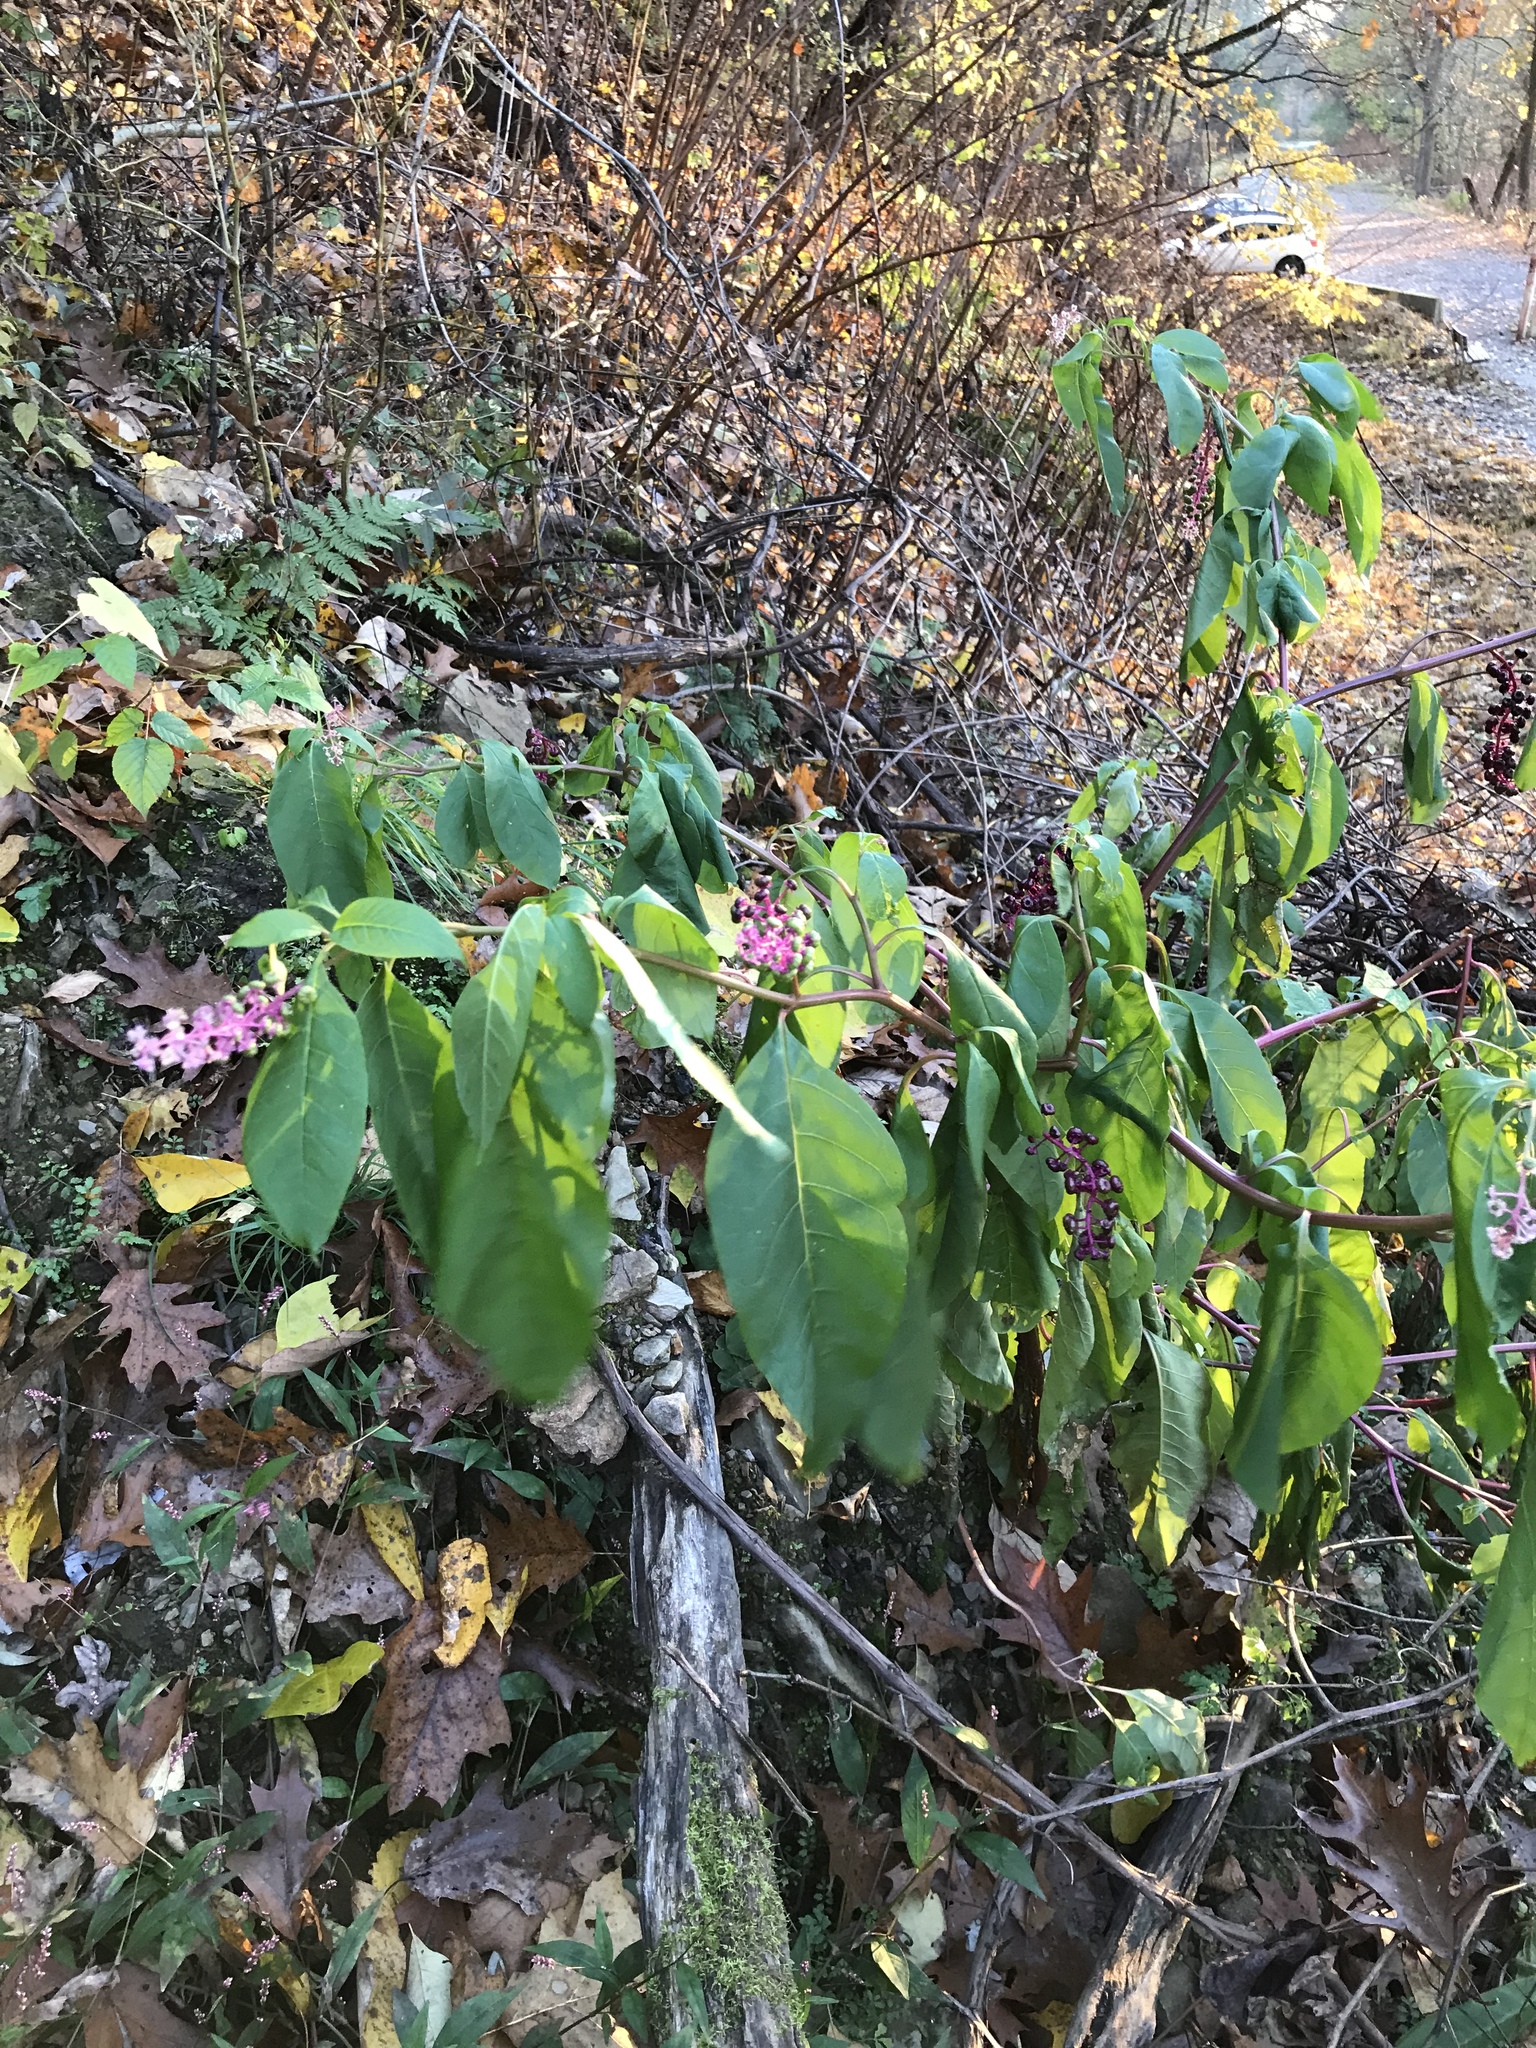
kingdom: Plantae
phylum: Tracheophyta
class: Magnoliopsida
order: Caryophyllales
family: Phytolaccaceae
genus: Phytolacca
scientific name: Phytolacca americana
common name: American pokeweed
